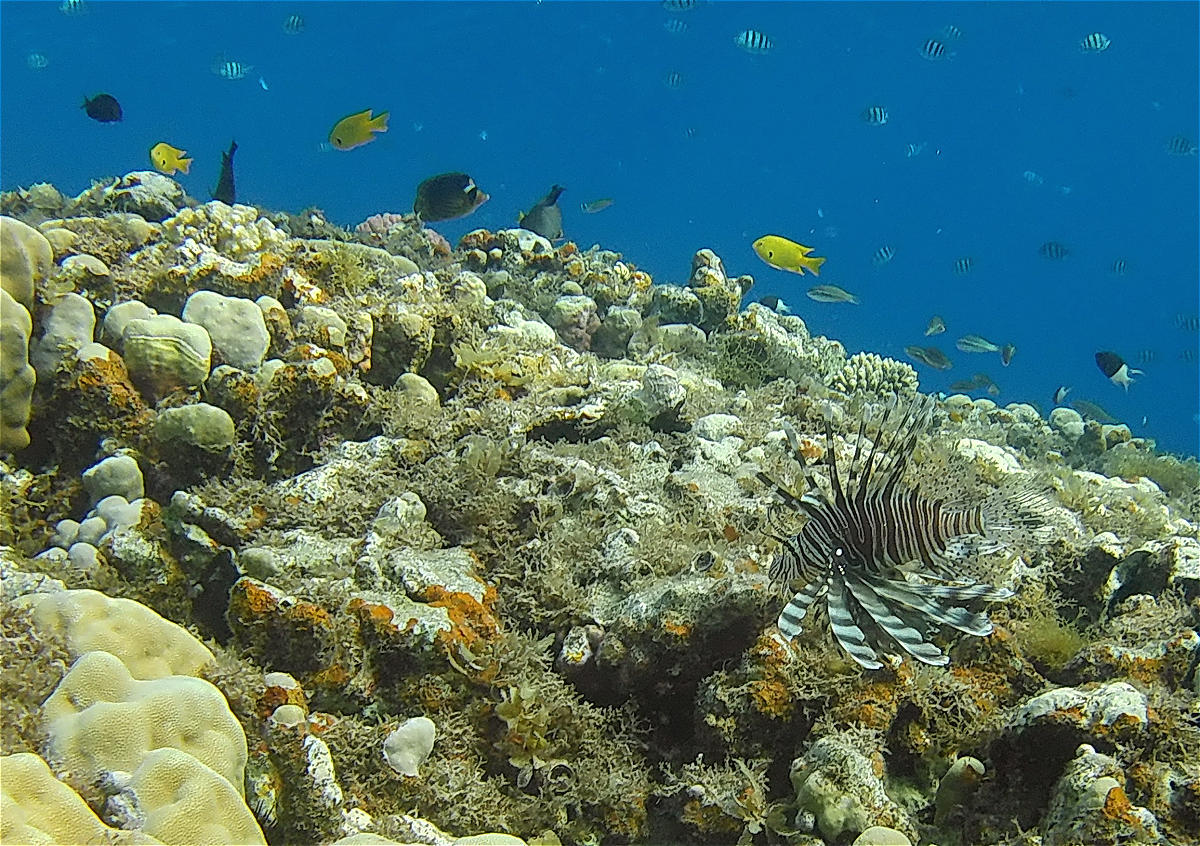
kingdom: Animalia
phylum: Chordata
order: Scorpaeniformes
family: Scorpaenidae
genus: Pterois
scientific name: Pterois miles
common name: Devil firefish
